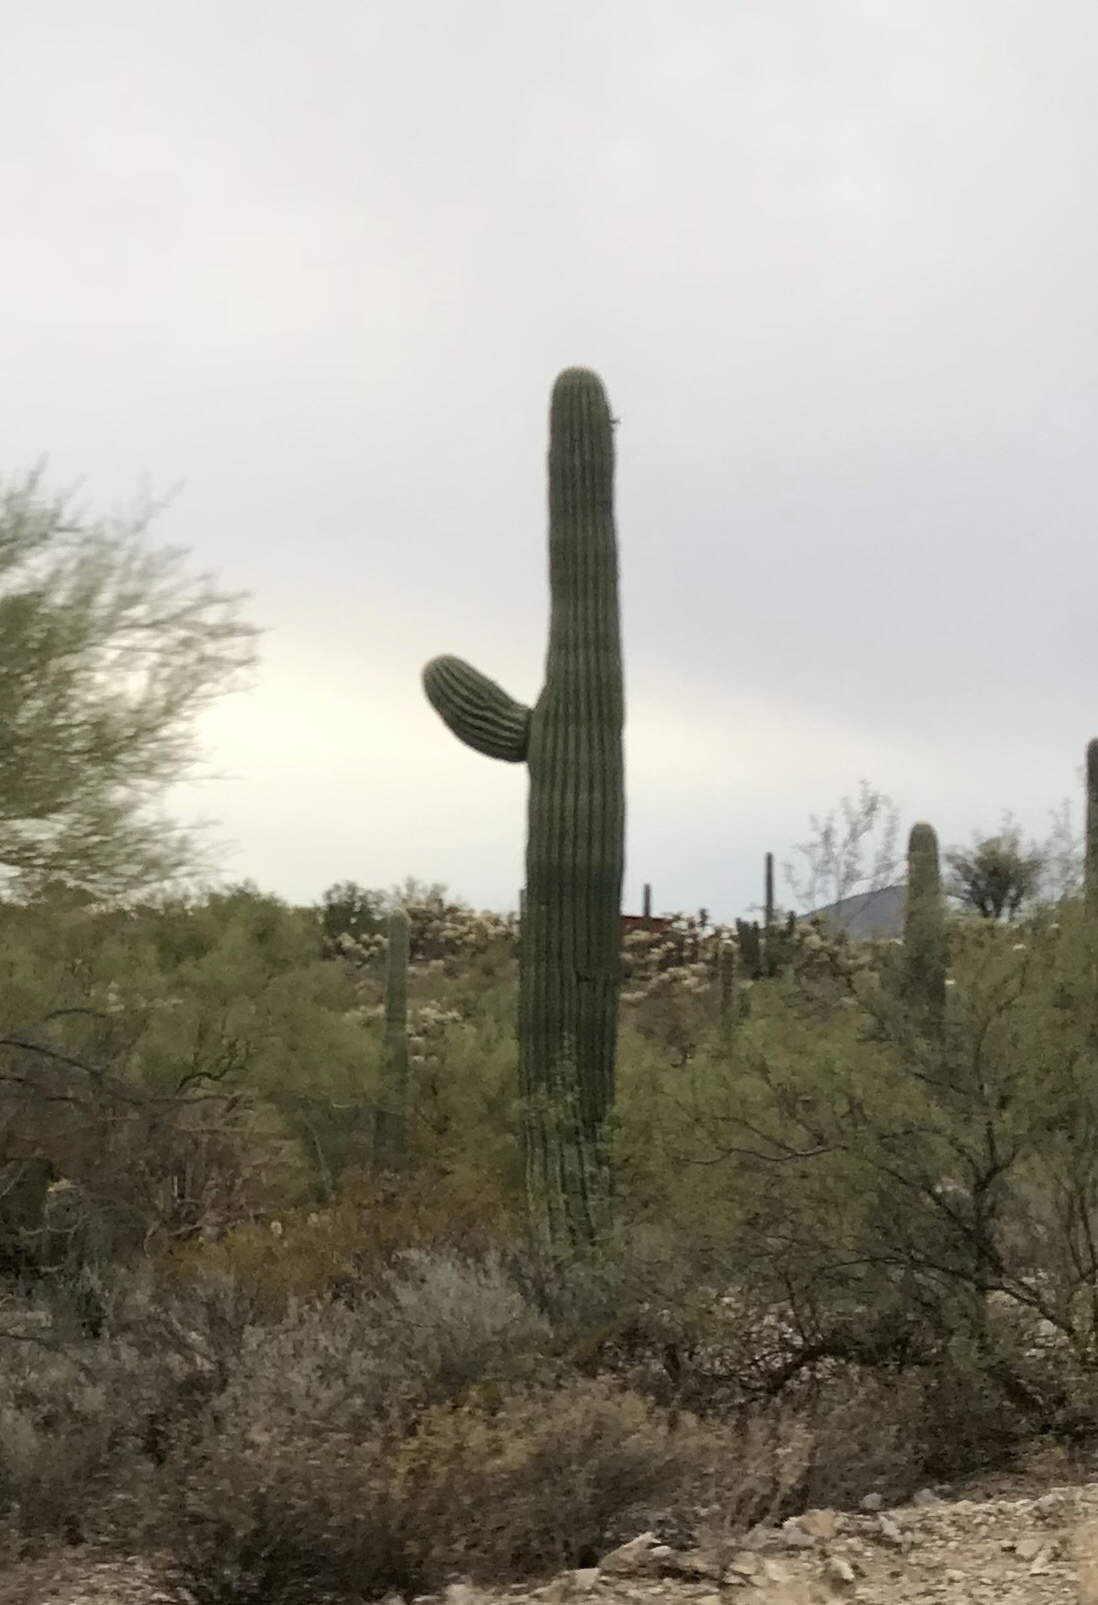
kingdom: Plantae
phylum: Tracheophyta
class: Magnoliopsida
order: Caryophyllales
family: Cactaceae
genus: Carnegiea
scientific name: Carnegiea gigantea
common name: Saguaro
